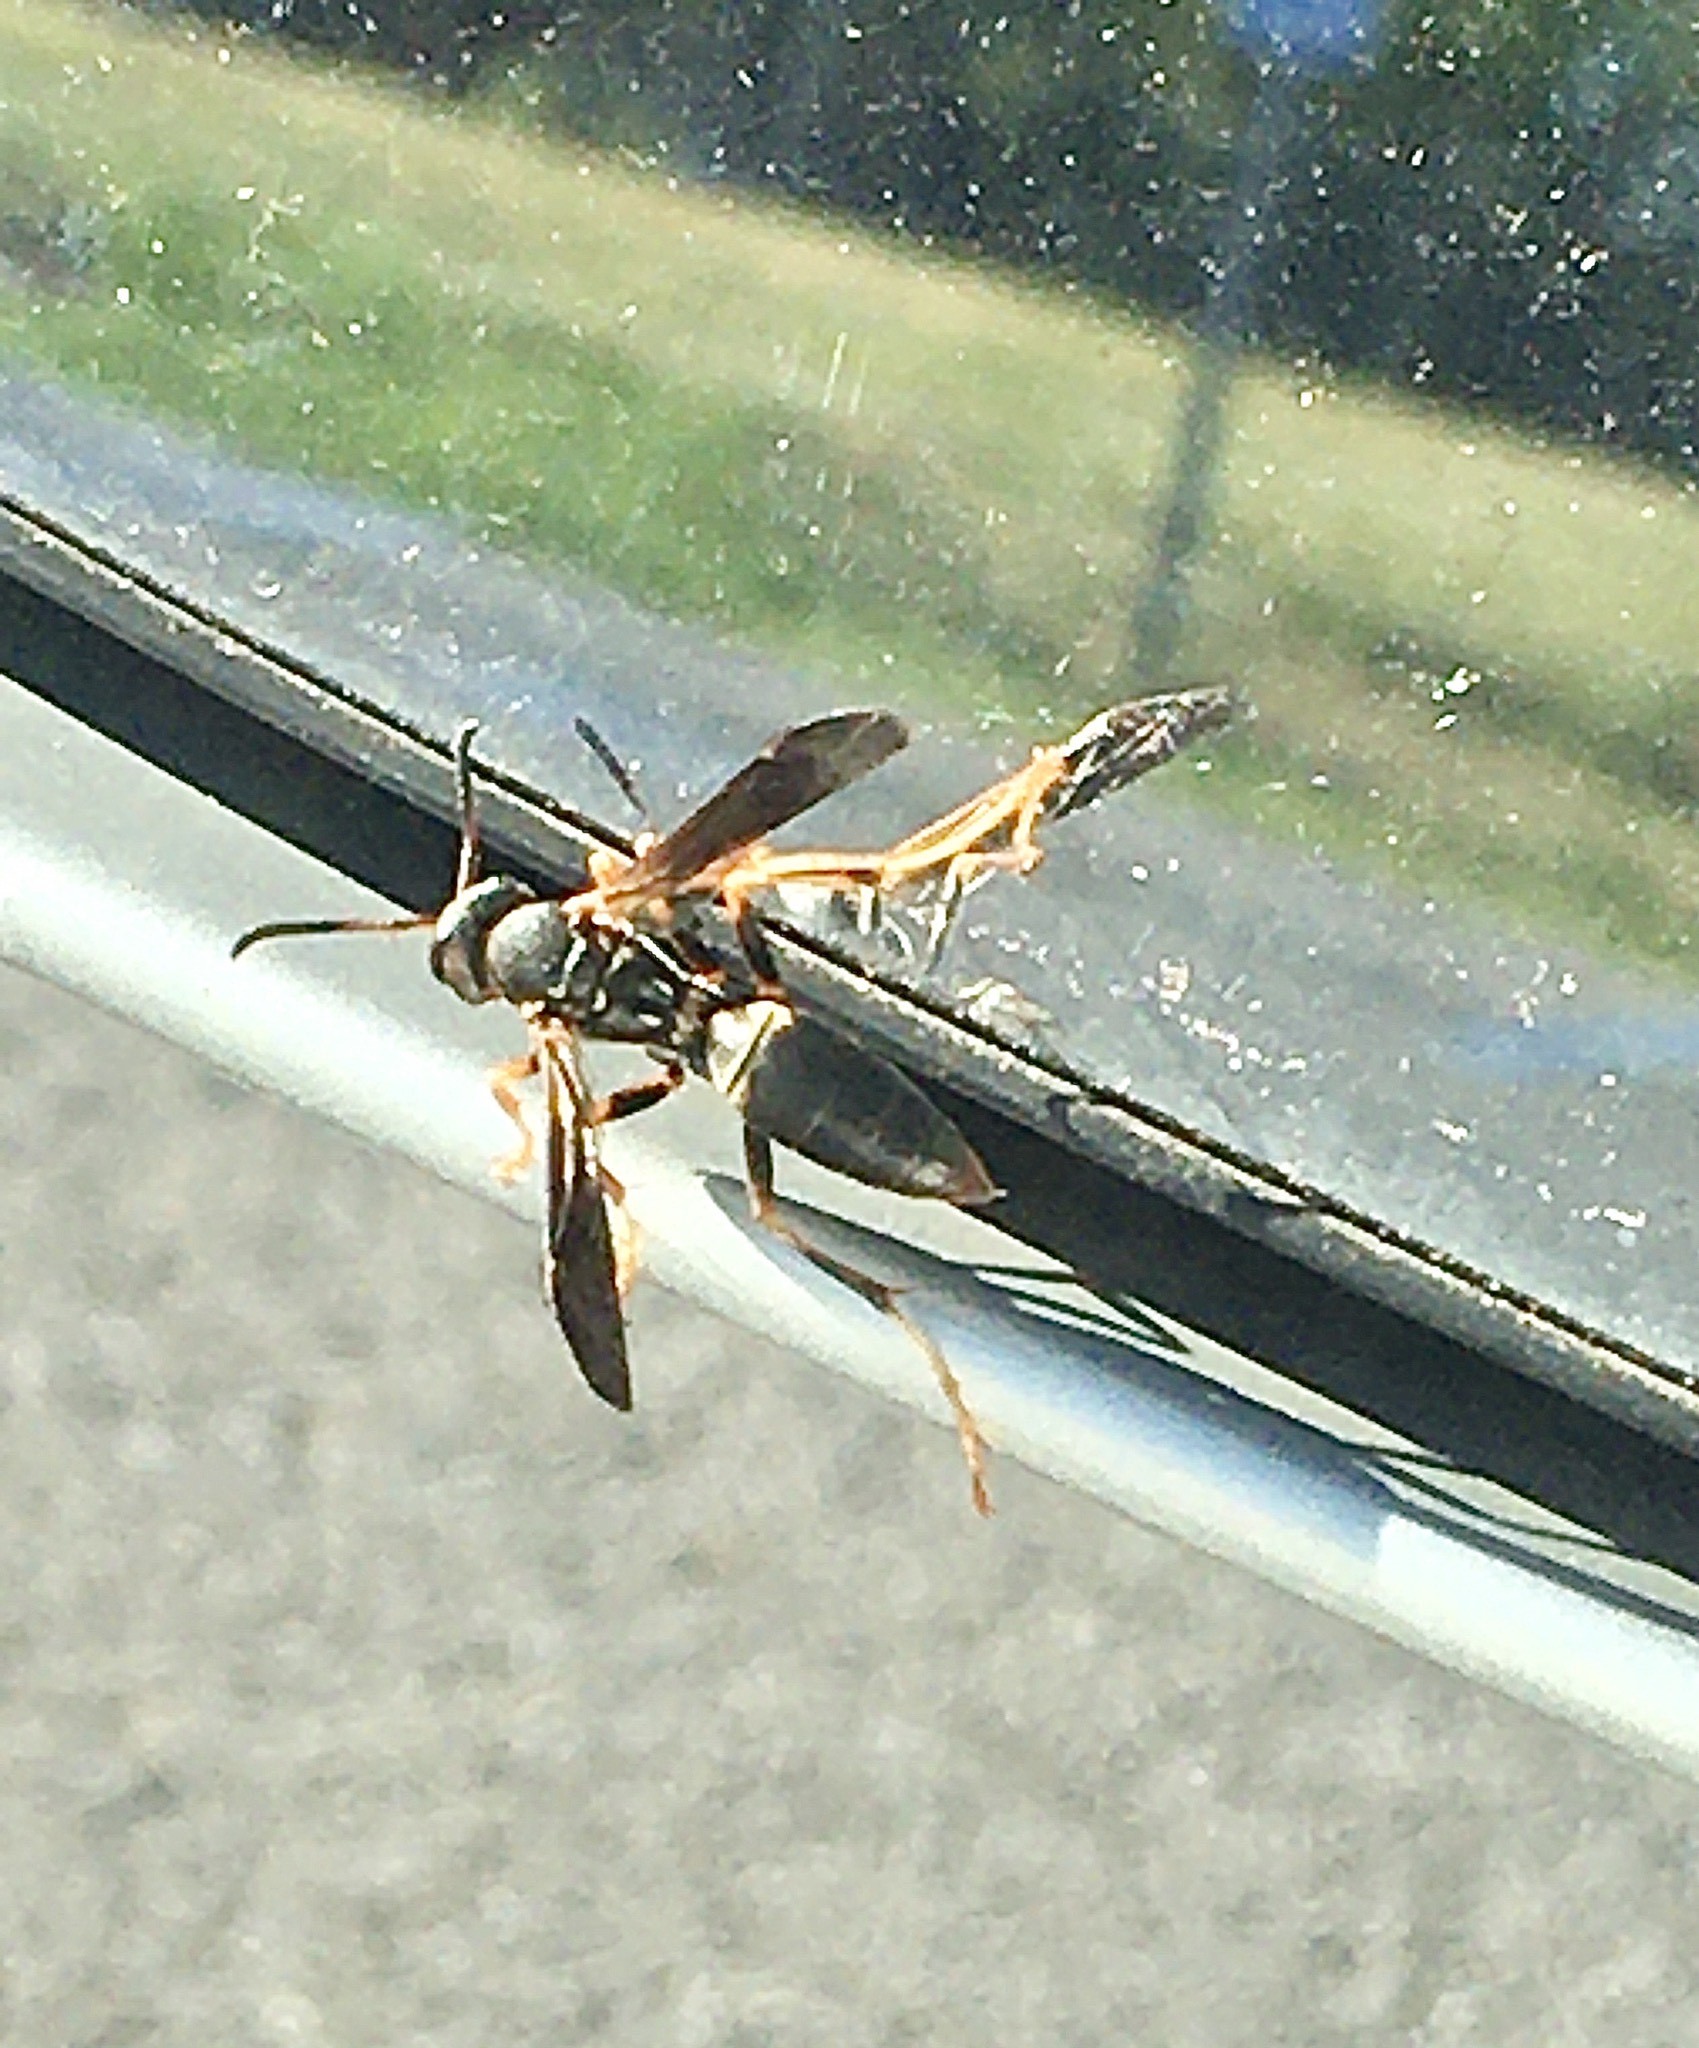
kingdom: Animalia
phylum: Arthropoda
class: Insecta
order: Hymenoptera
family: Eumenidae
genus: Polistes
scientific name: Polistes fuscatus
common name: Dark paper wasp
